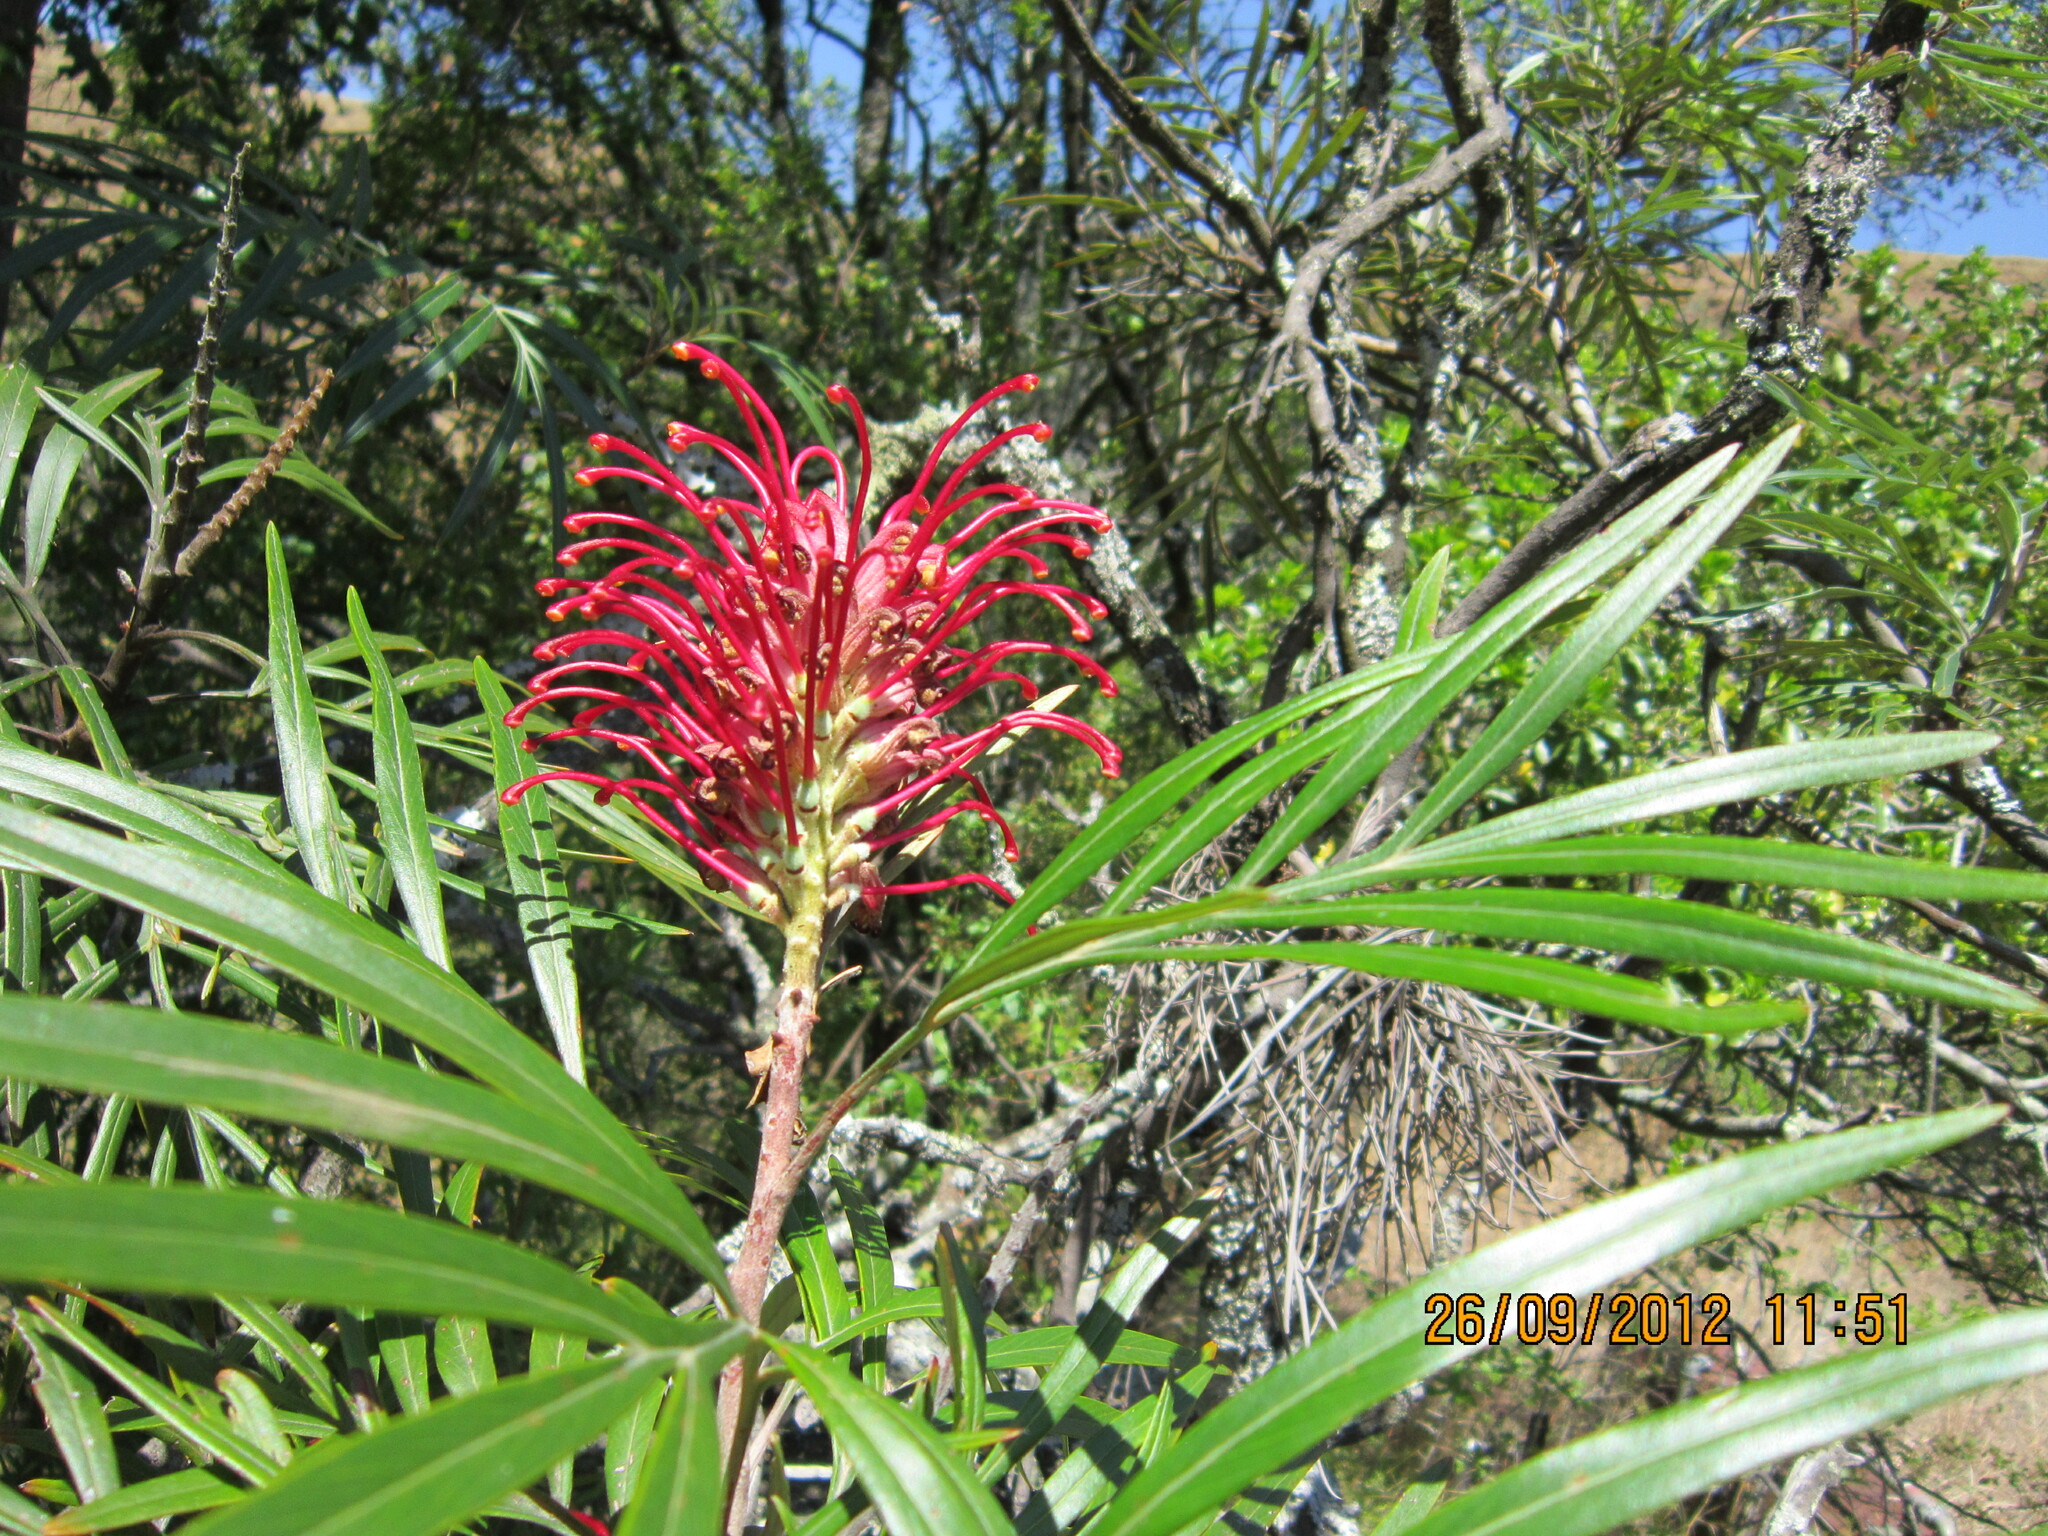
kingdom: Plantae
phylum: Tracheophyta
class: Magnoliopsida
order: Proteales
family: Proteaceae
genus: Grevillea
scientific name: Grevillea banksii
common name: Kahili flower
